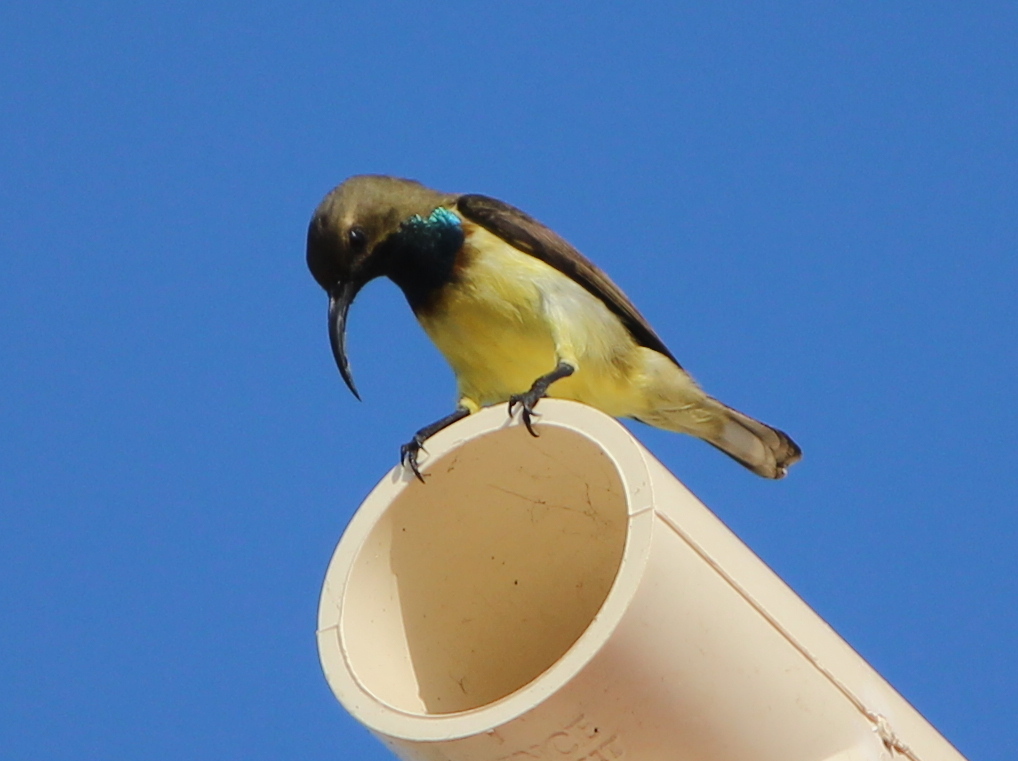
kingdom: Animalia
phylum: Chordata
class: Aves
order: Passeriformes
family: Nectariniidae
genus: Cinnyris
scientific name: Cinnyris
